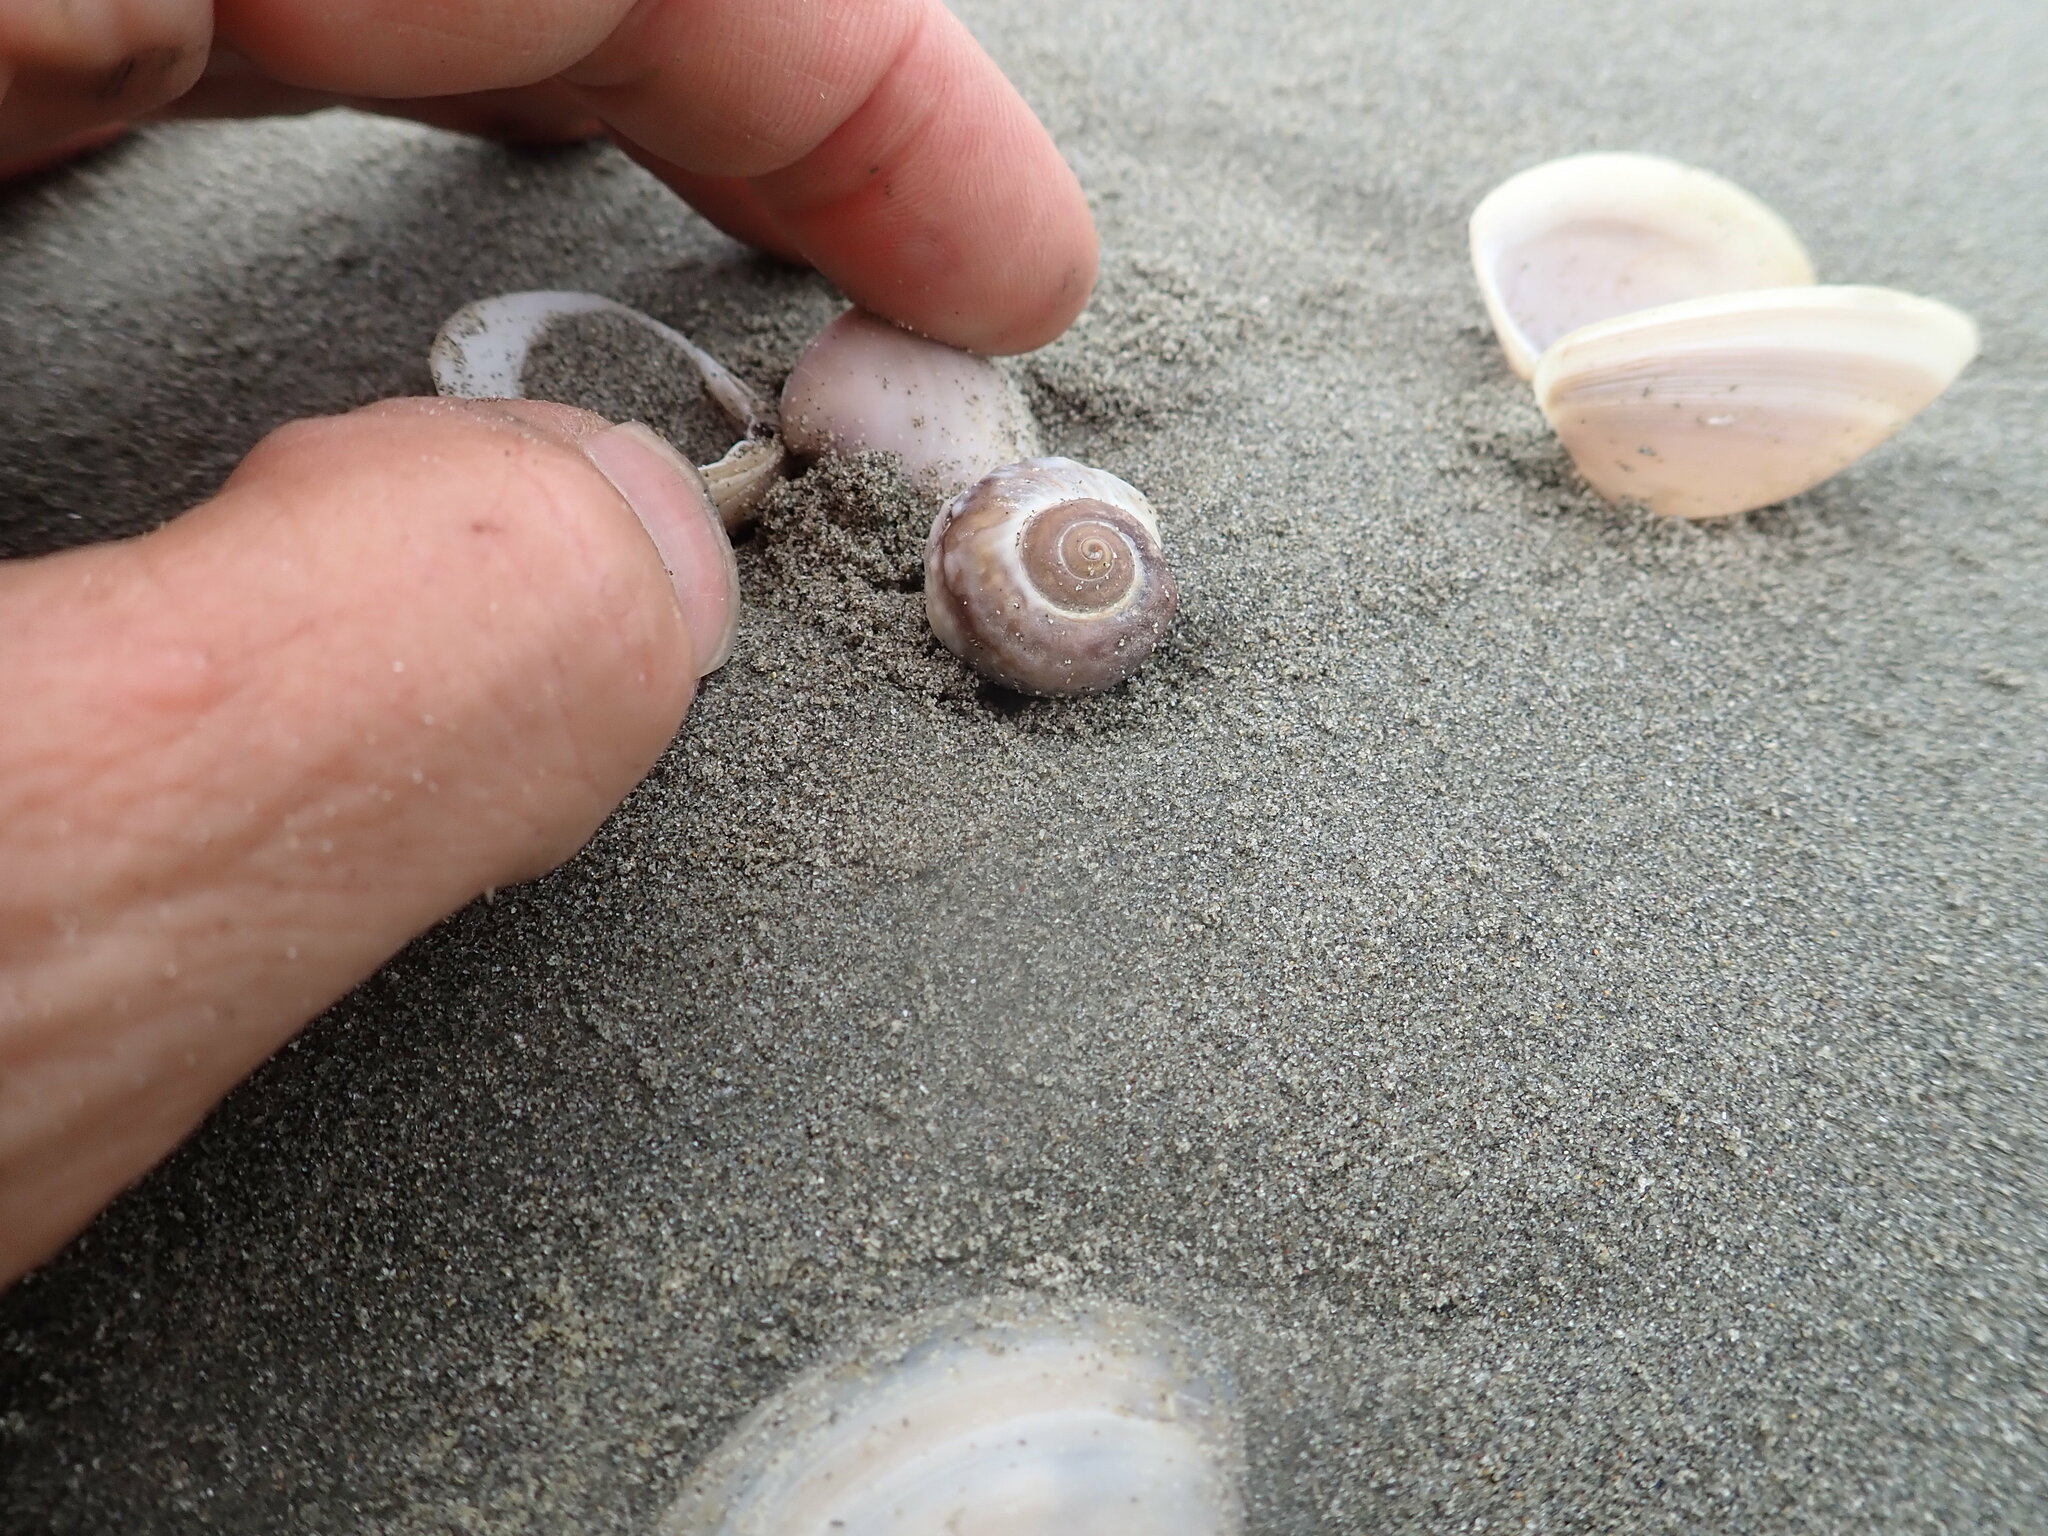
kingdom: Animalia
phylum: Mollusca
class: Gastropoda
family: Amphibolidae
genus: Amphibola
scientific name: Amphibola crenata
